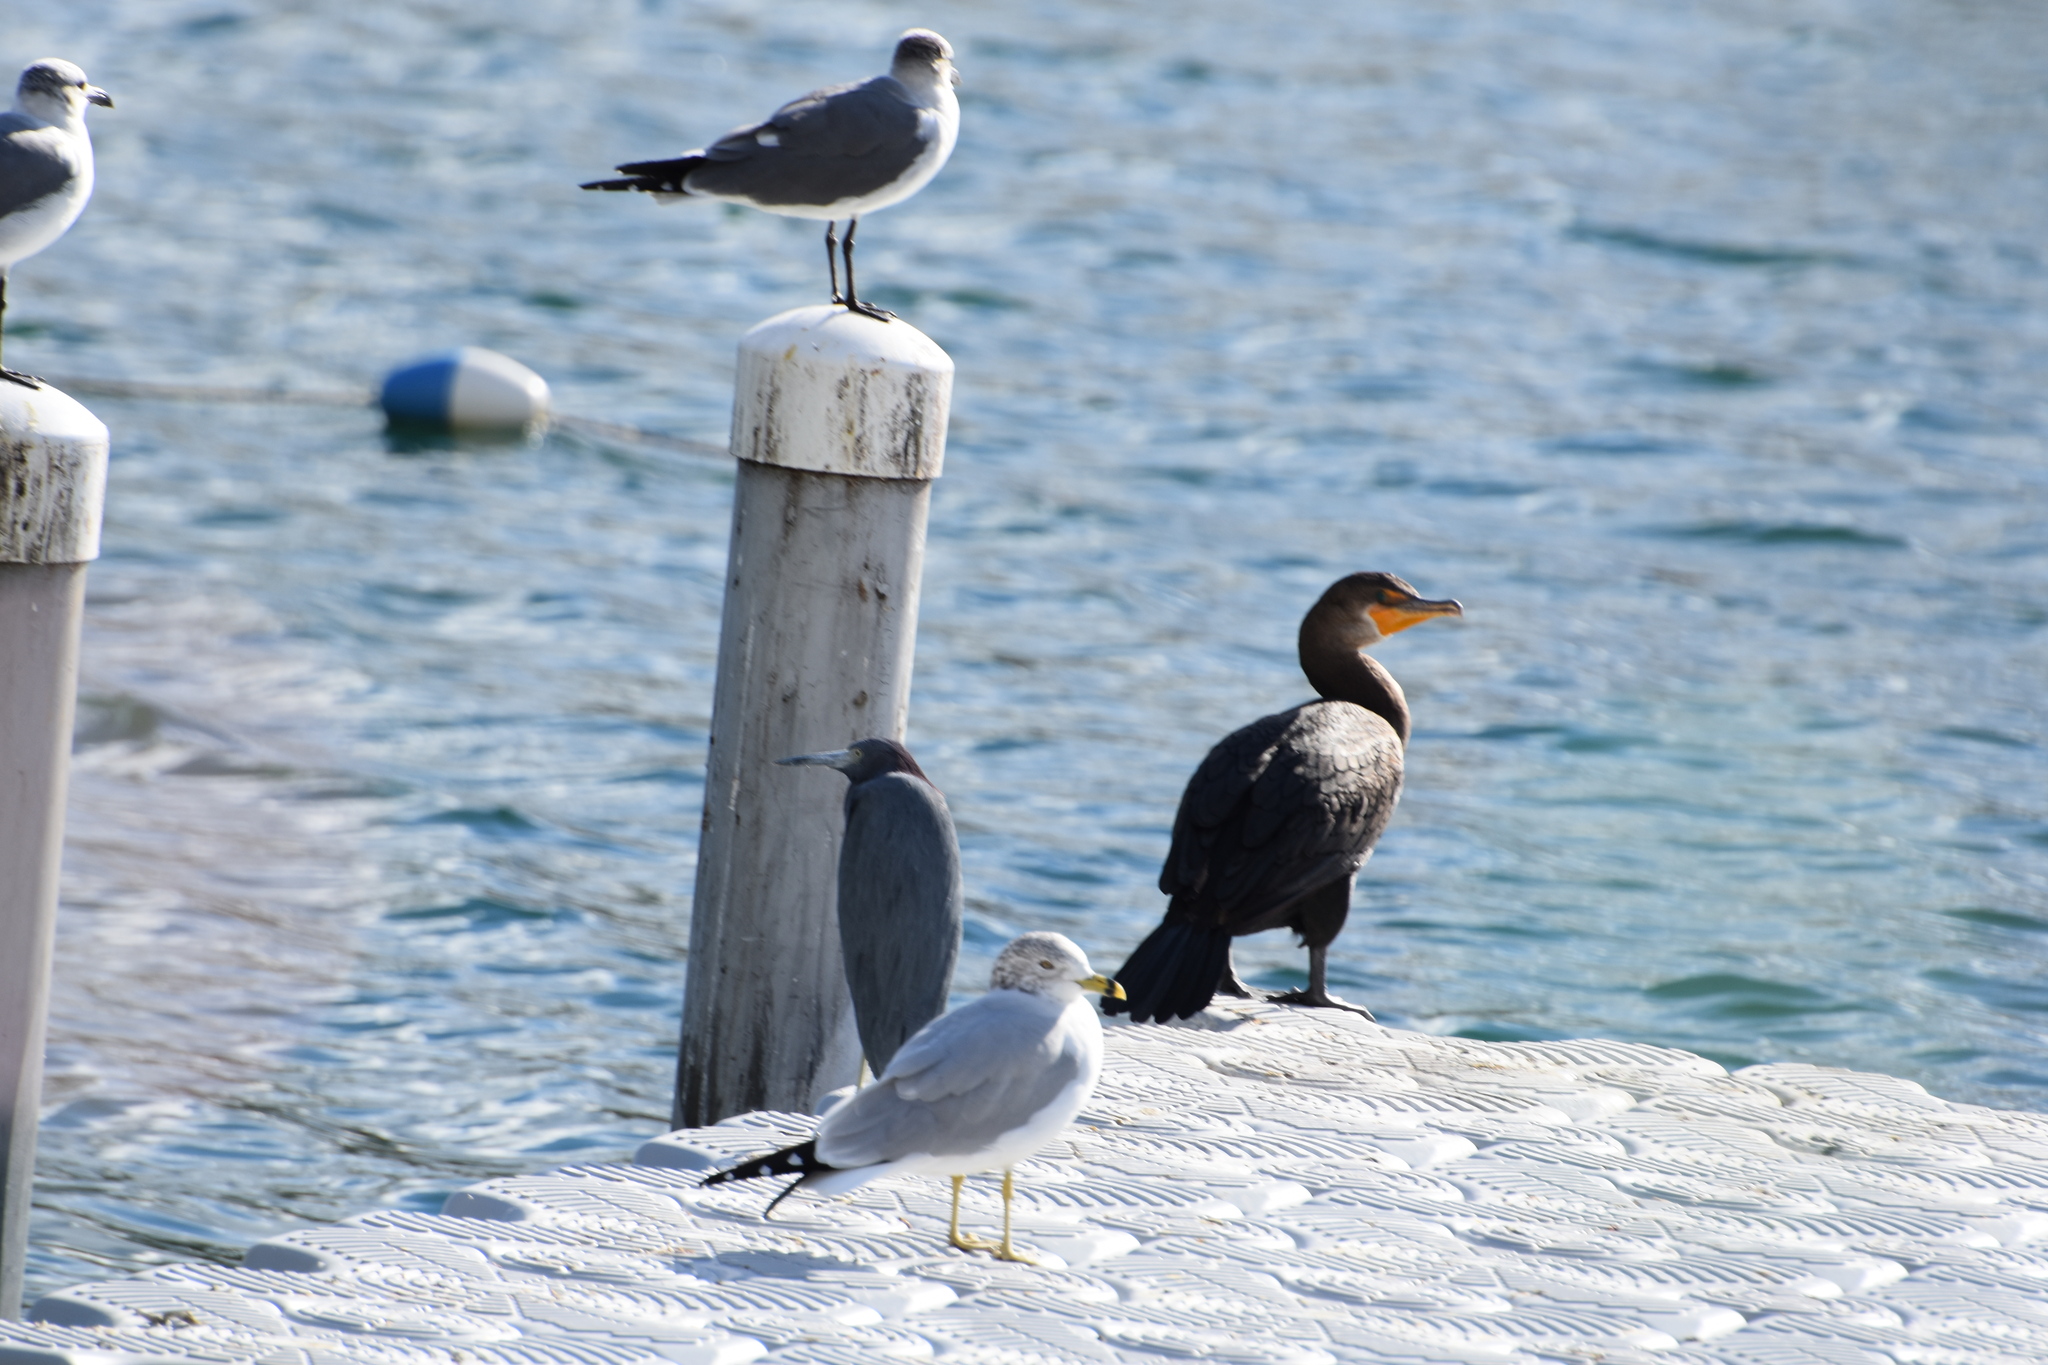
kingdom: Animalia
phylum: Chordata
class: Aves
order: Suliformes
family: Phalacrocoracidae
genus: Phalacrocorax
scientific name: Phalacrocorax auritus
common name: Double-crested cormorant
